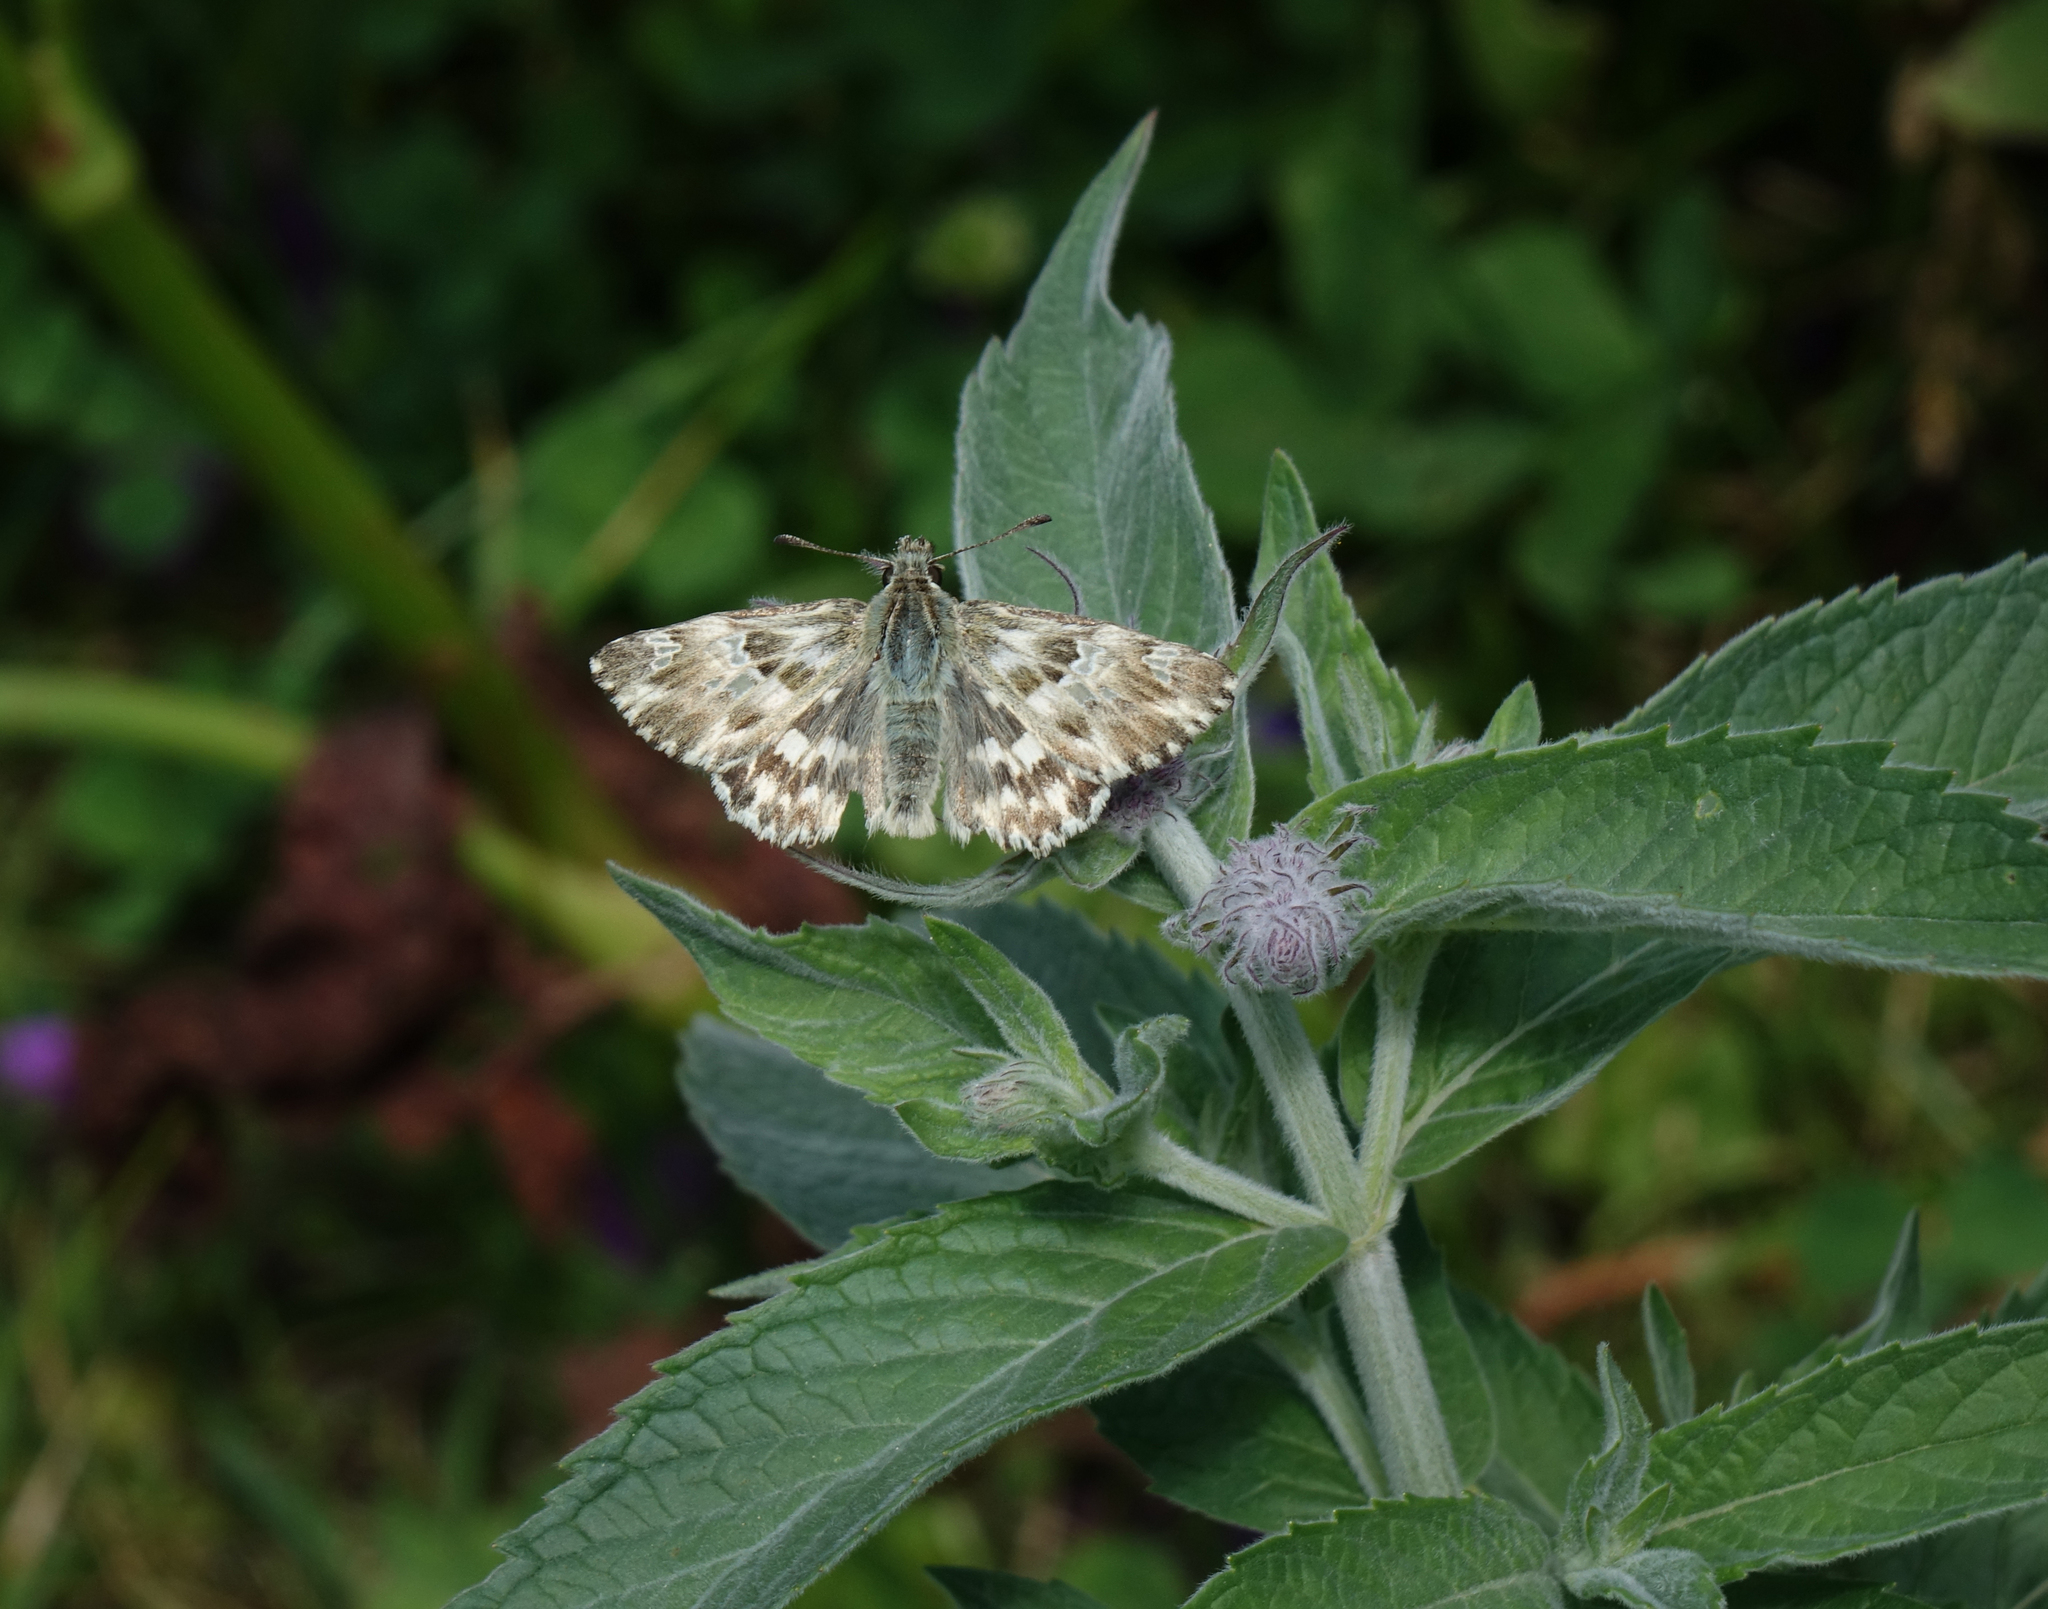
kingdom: Plantae
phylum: Tracheophyta
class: Magnoliopsida
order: Lamiales
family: Lamiaceae
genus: Mentha
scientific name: Mentha longifolia
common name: Horse mint
